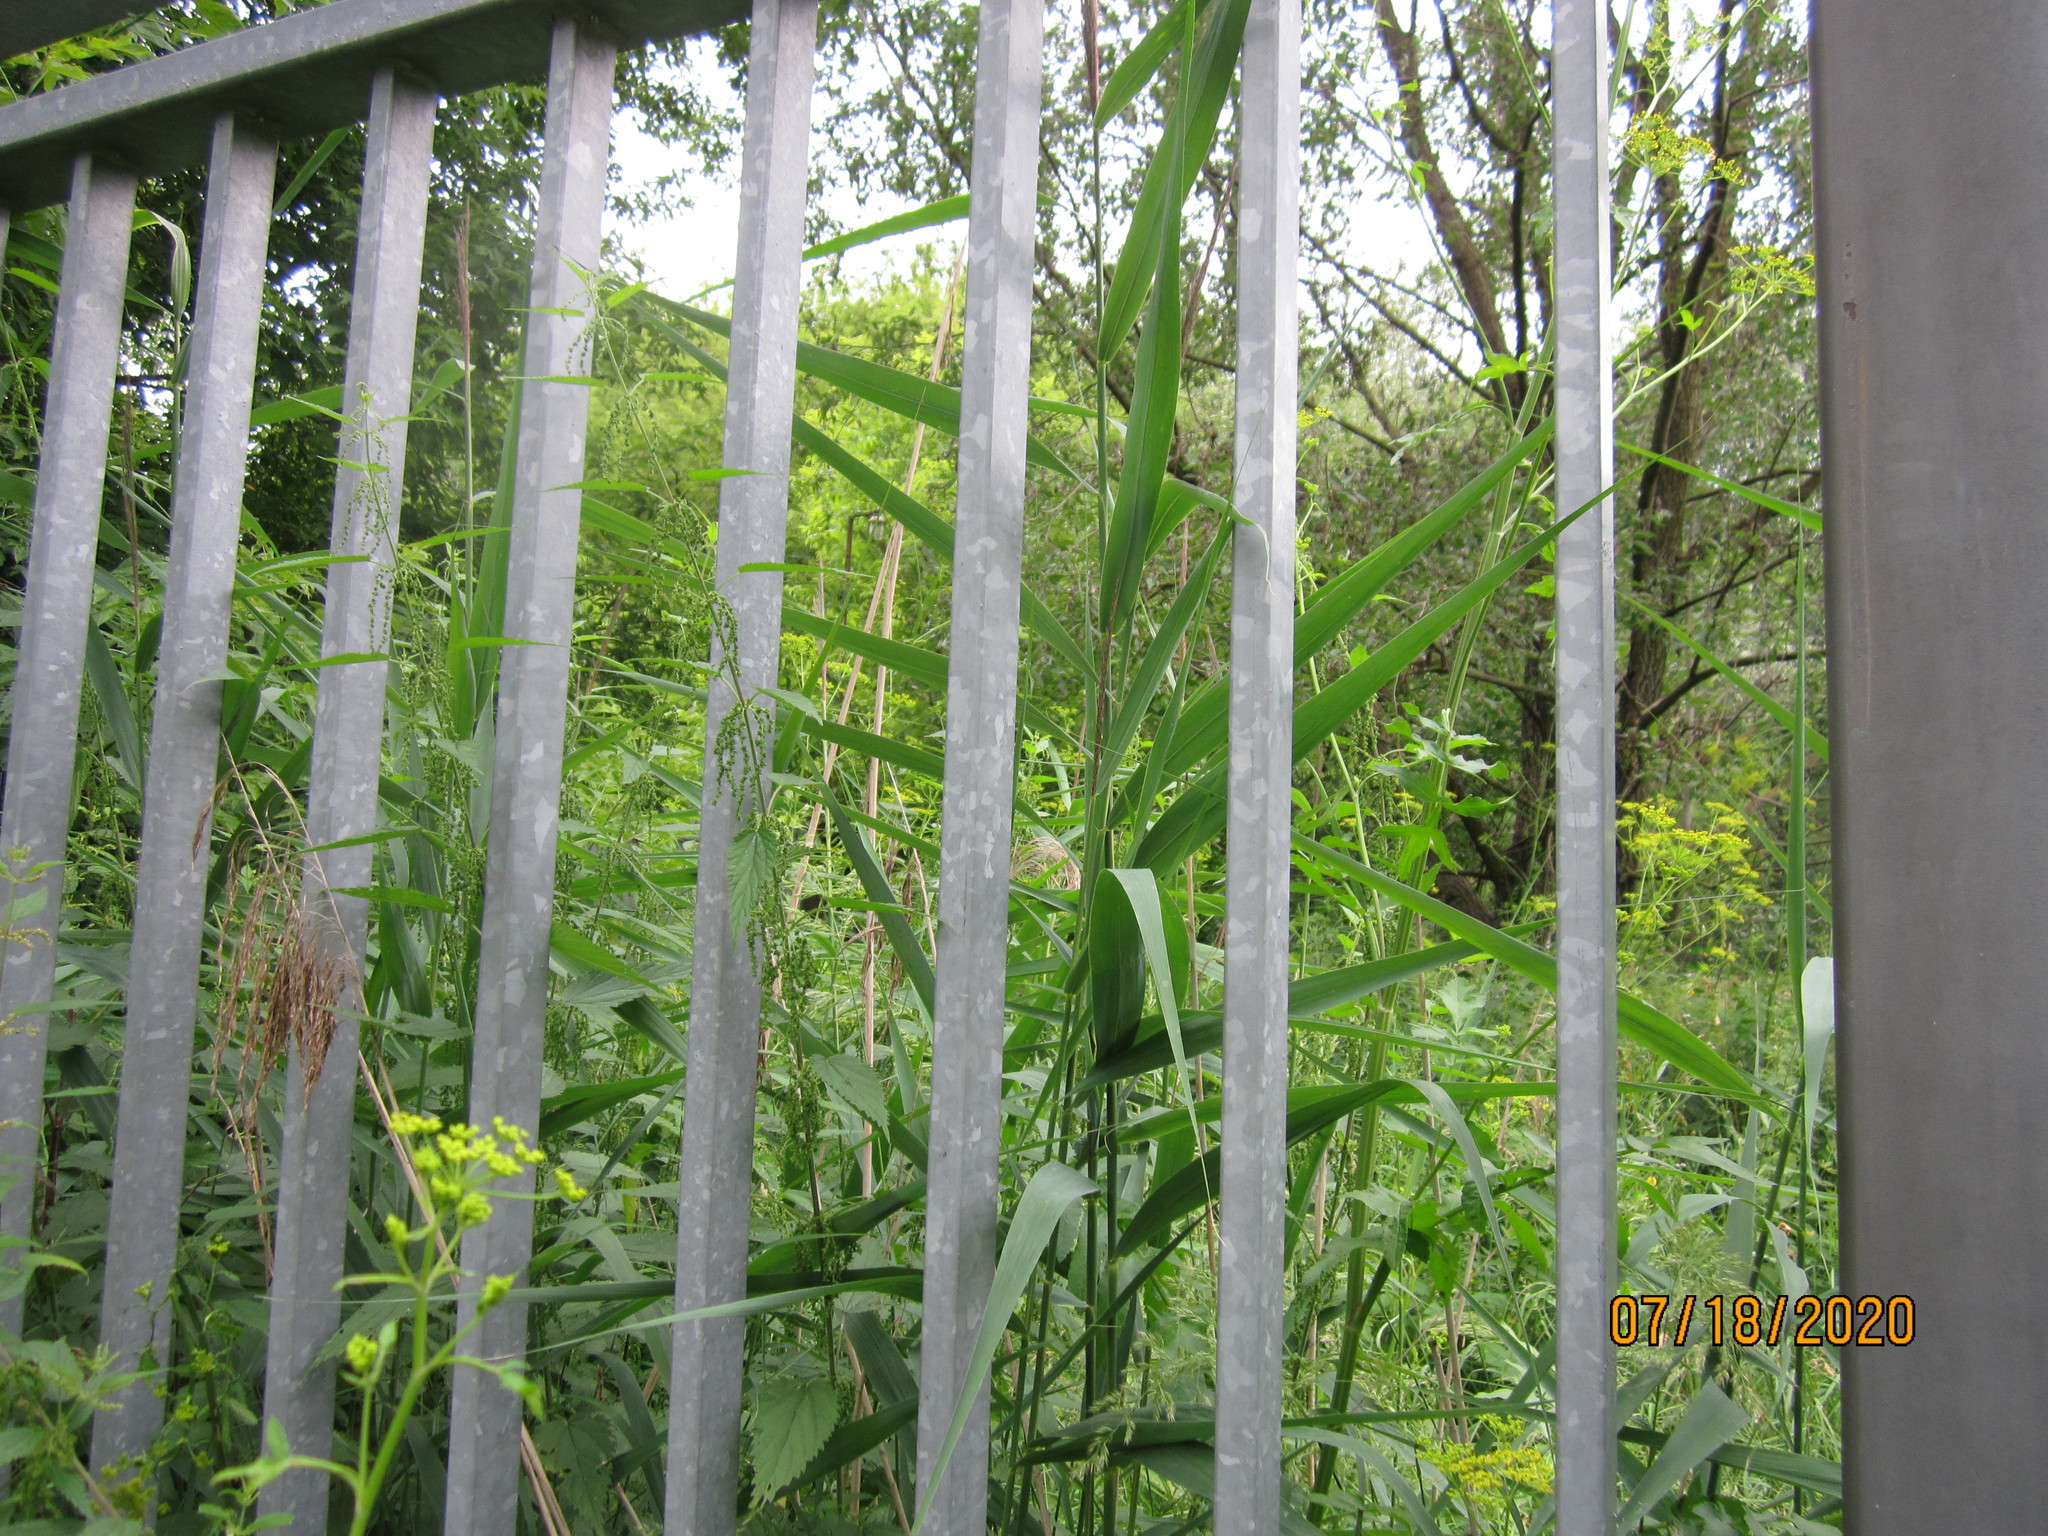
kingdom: Plantae
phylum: Tracheophyta
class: Liliopsida
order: Poales
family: Poaceae
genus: Phragmites
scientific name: Phragmites australis
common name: Common reed
